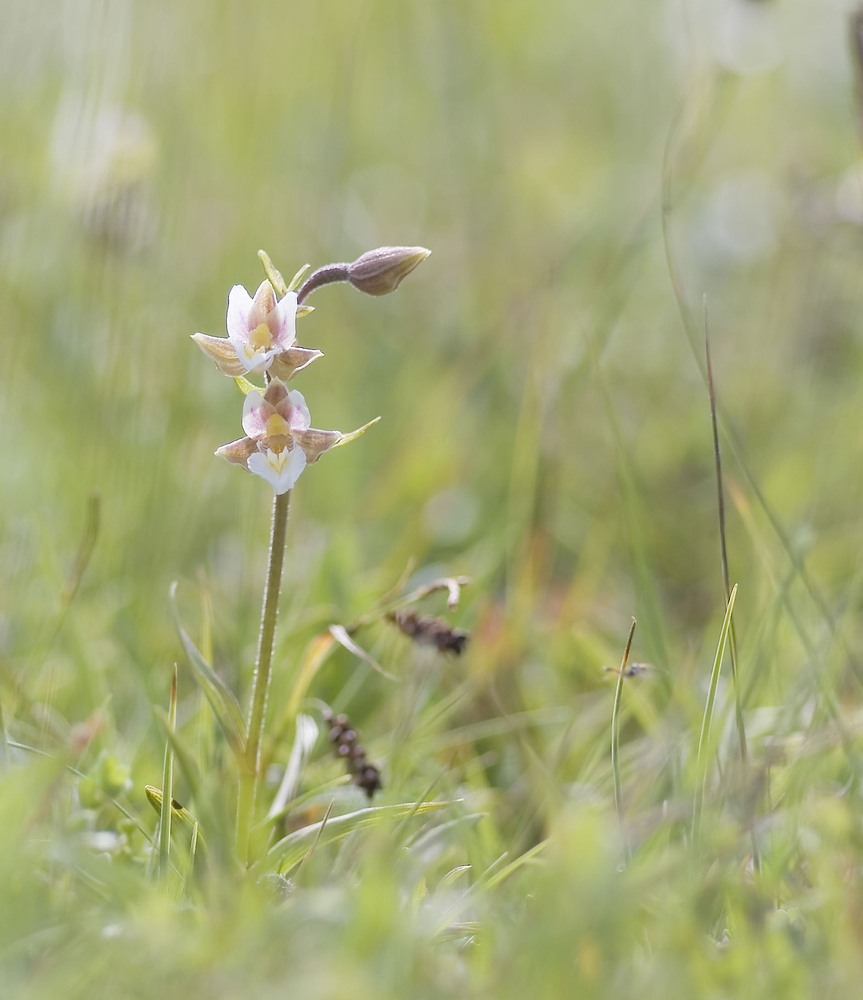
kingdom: Plantae
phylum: Tracheophyta
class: Liliopsida
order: Asparagales
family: Orchidaceae
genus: Epipactis
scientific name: Epipactis palustris
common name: Marsh helleborine
